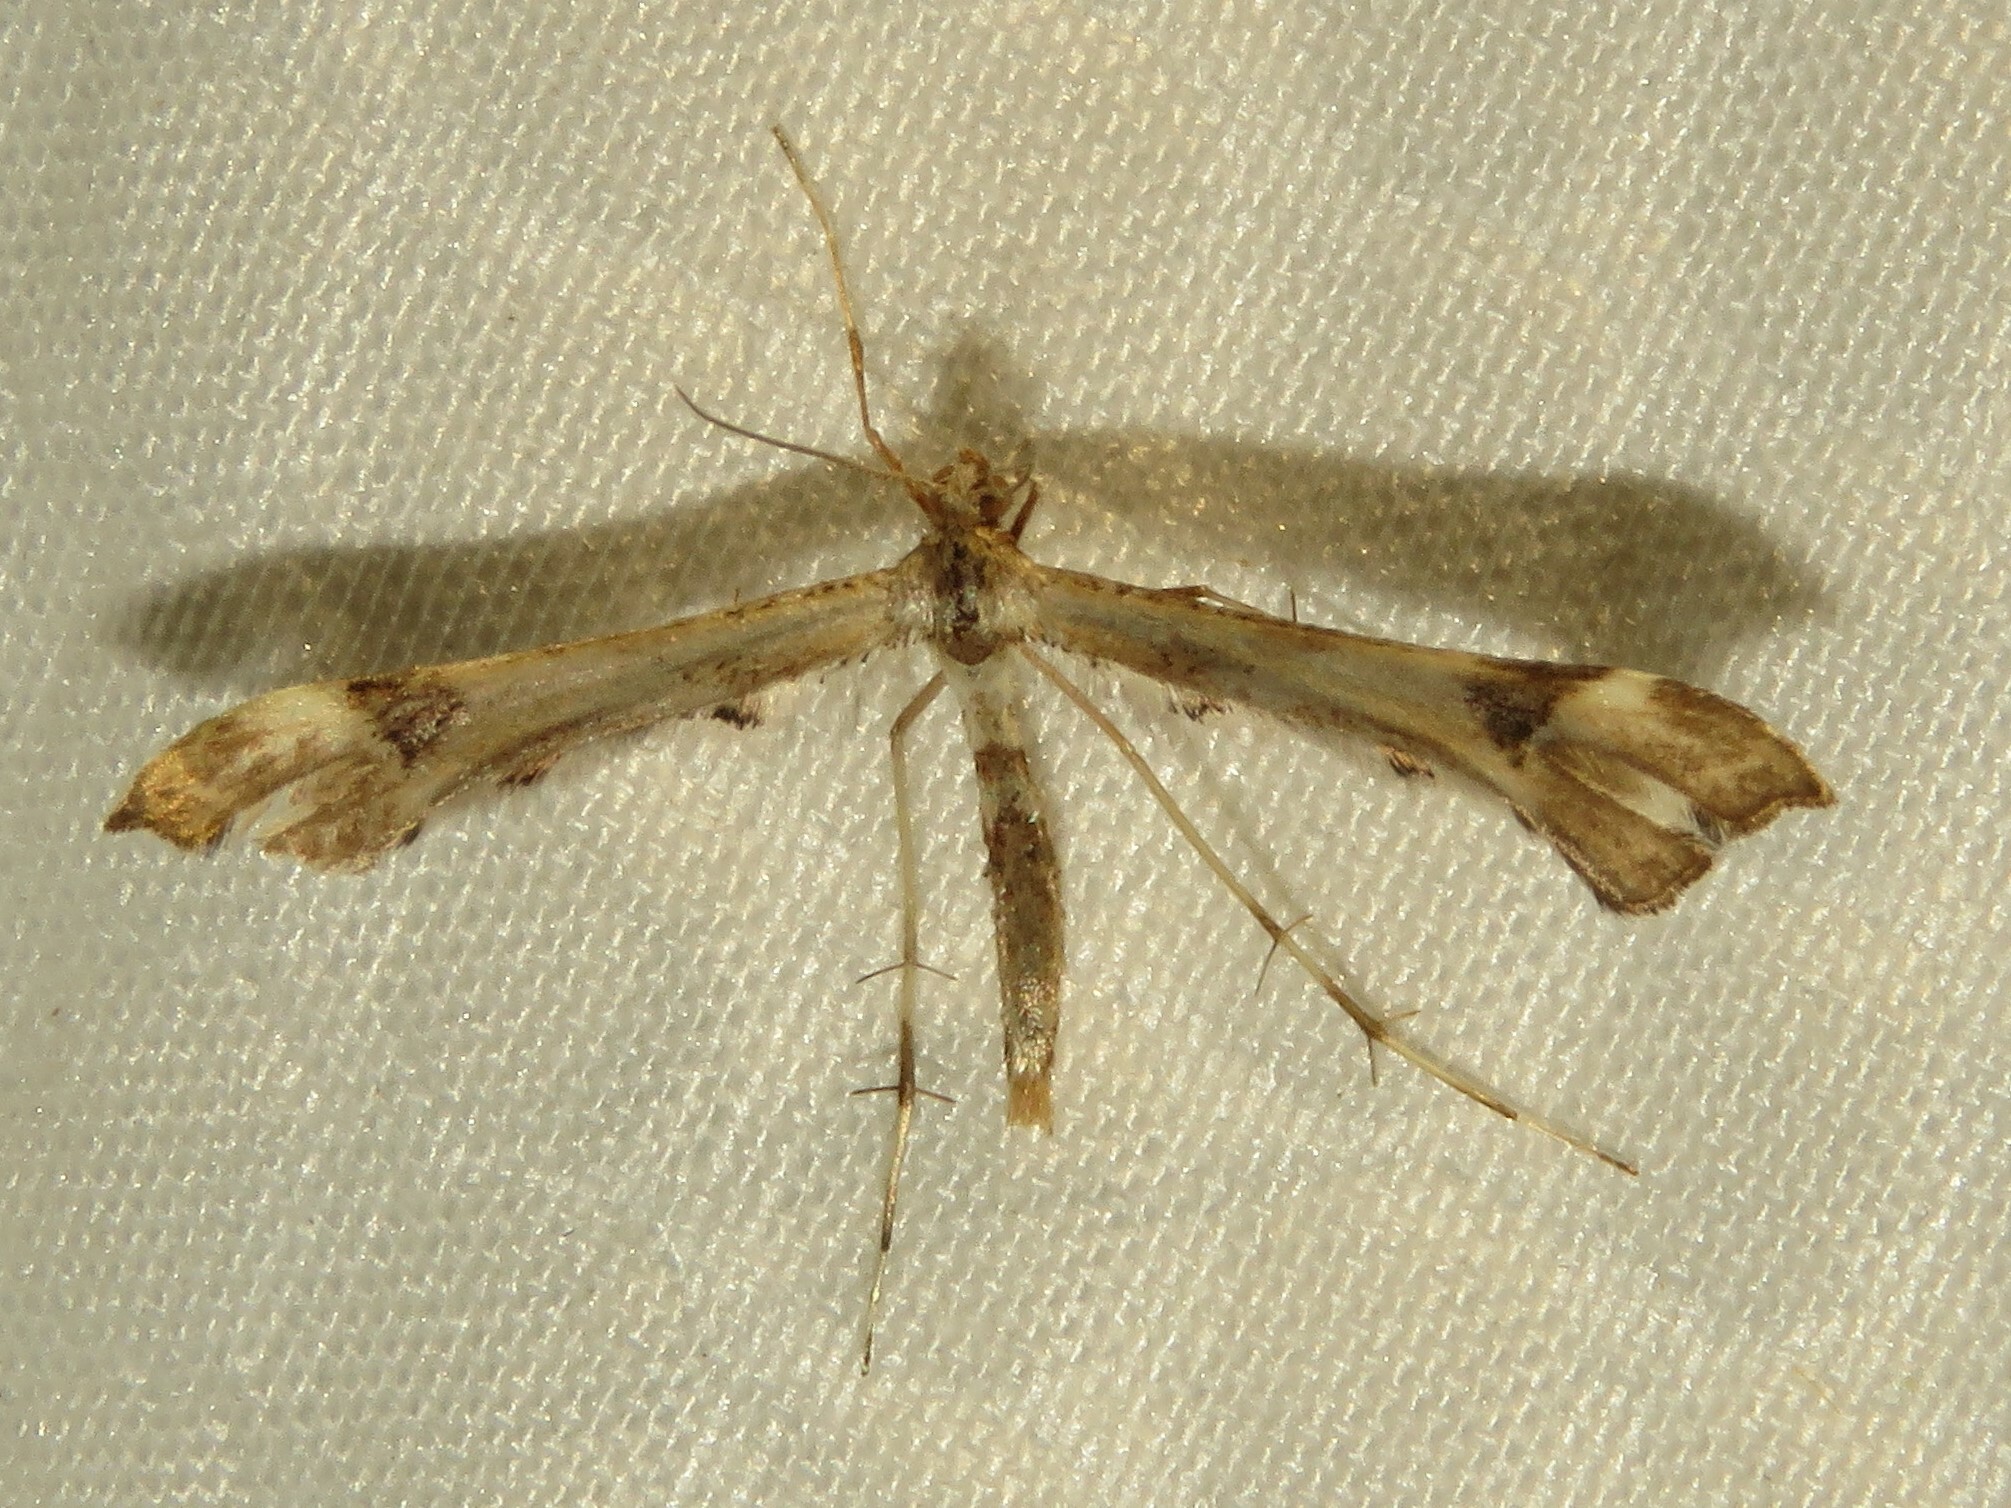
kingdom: Animalia
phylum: Arthropoda
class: Insecta
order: Lepidoptera
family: Pterophoridae
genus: Platyptilia
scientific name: Platyptilia carduidactylus
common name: Artichoke plume moth
